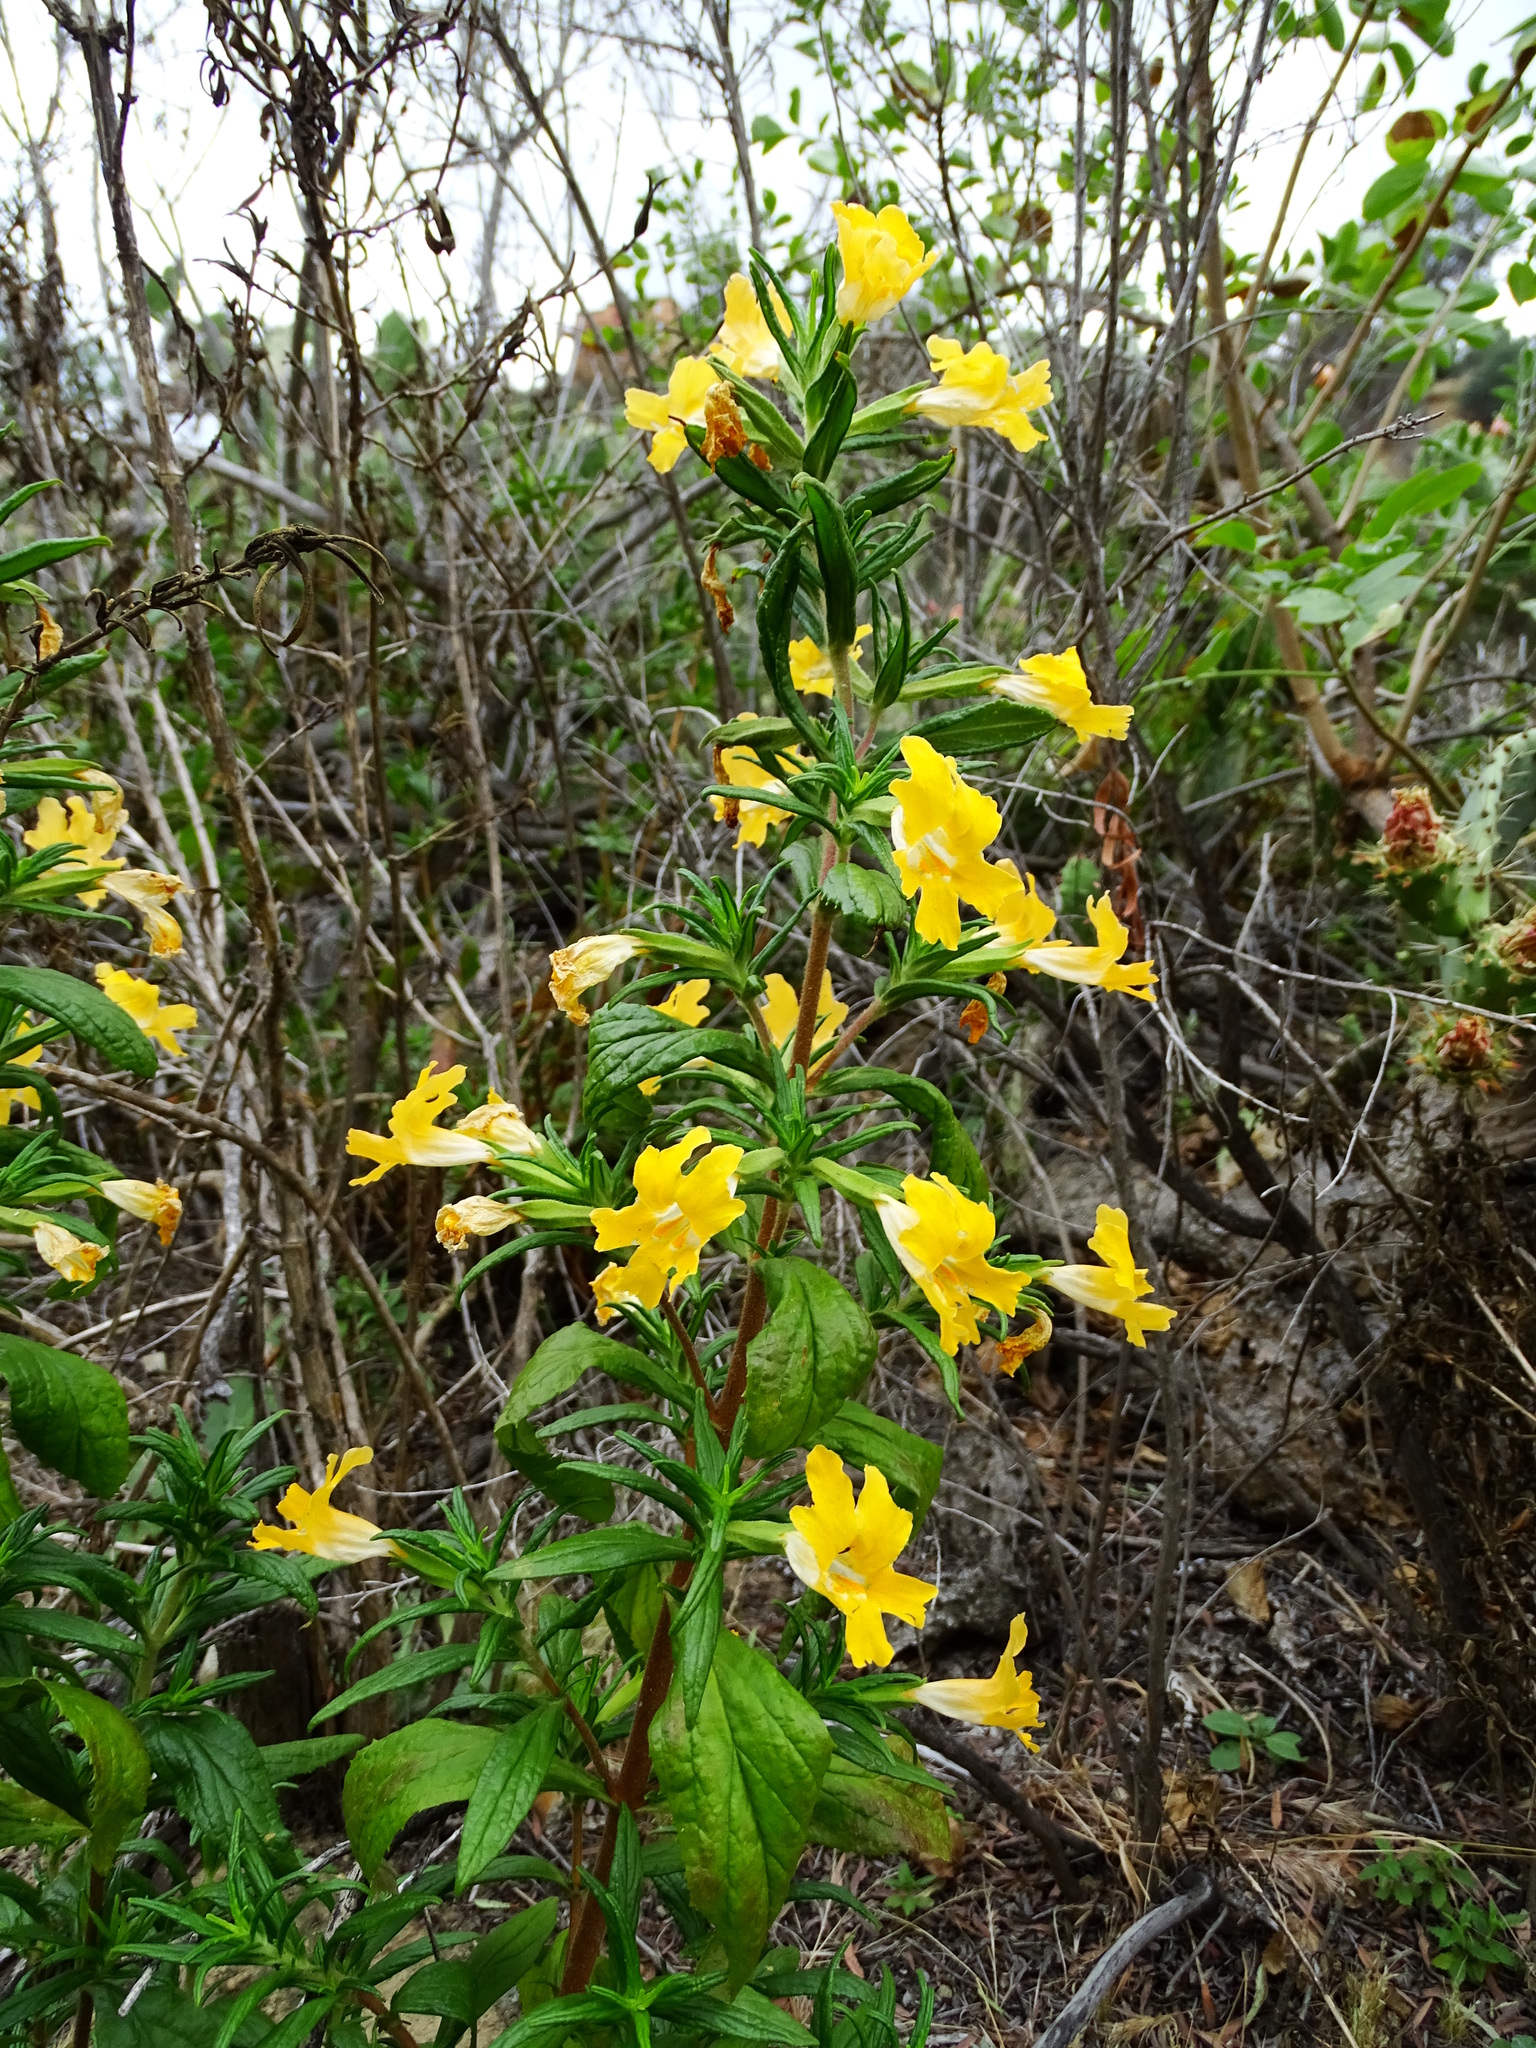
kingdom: Plantae
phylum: Tracheophyta
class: Magnoliopsida
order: Lamiales
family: Phrymaceae
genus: Diplacus
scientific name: Diplacus longiflorus
